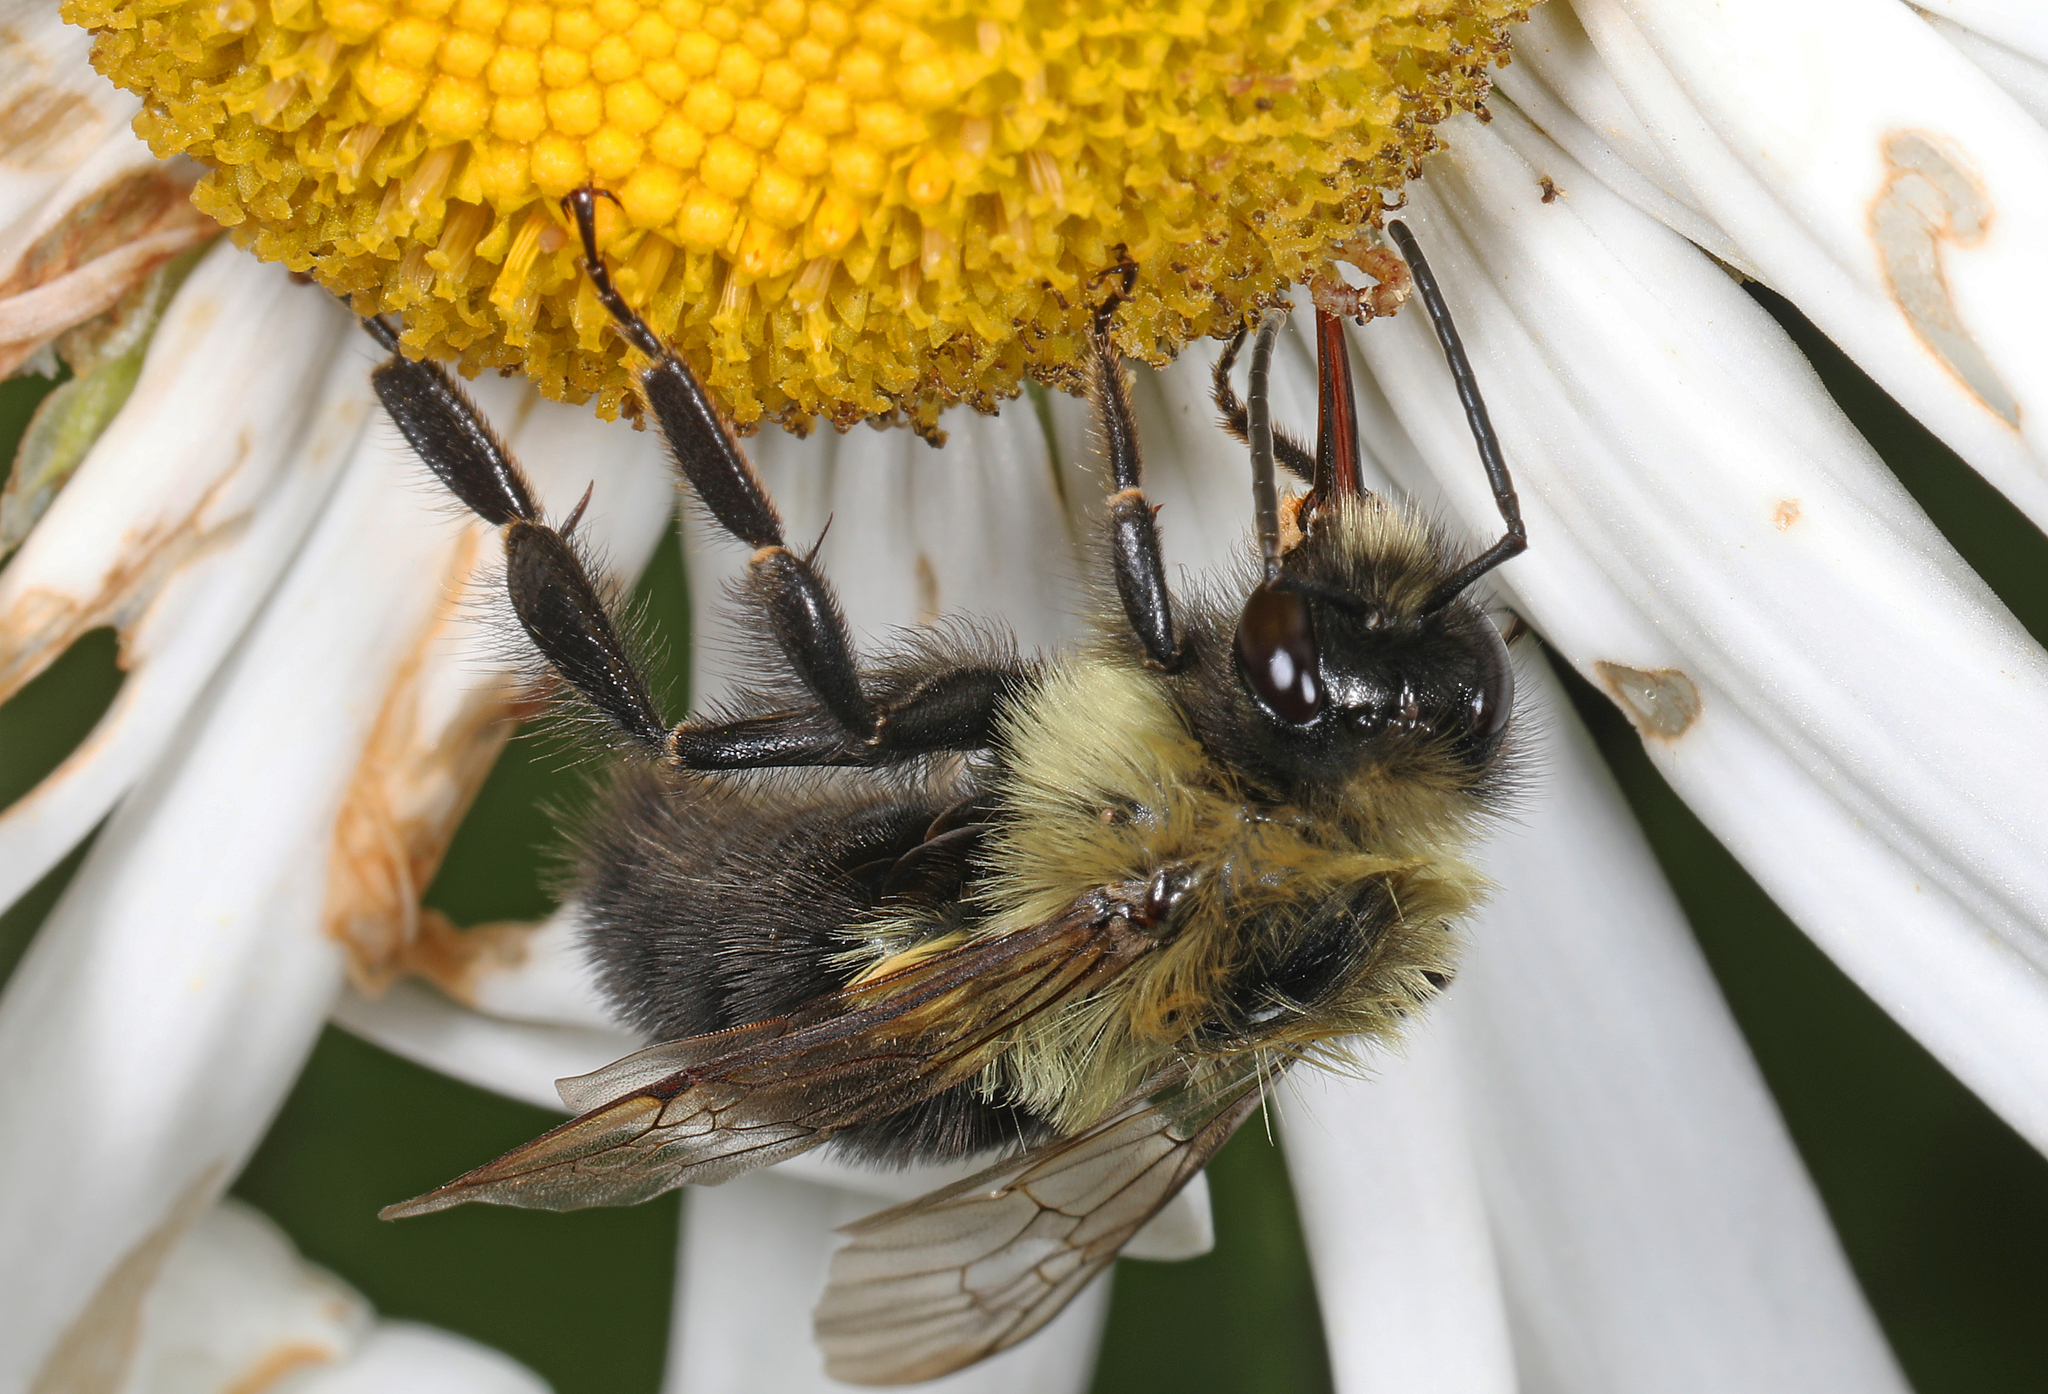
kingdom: Animalia
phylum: Arthropoda
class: Insecta
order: Hymenoptera
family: Apidae
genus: Bombus
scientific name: Bombus impatiens
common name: Common eastern bumble bee
